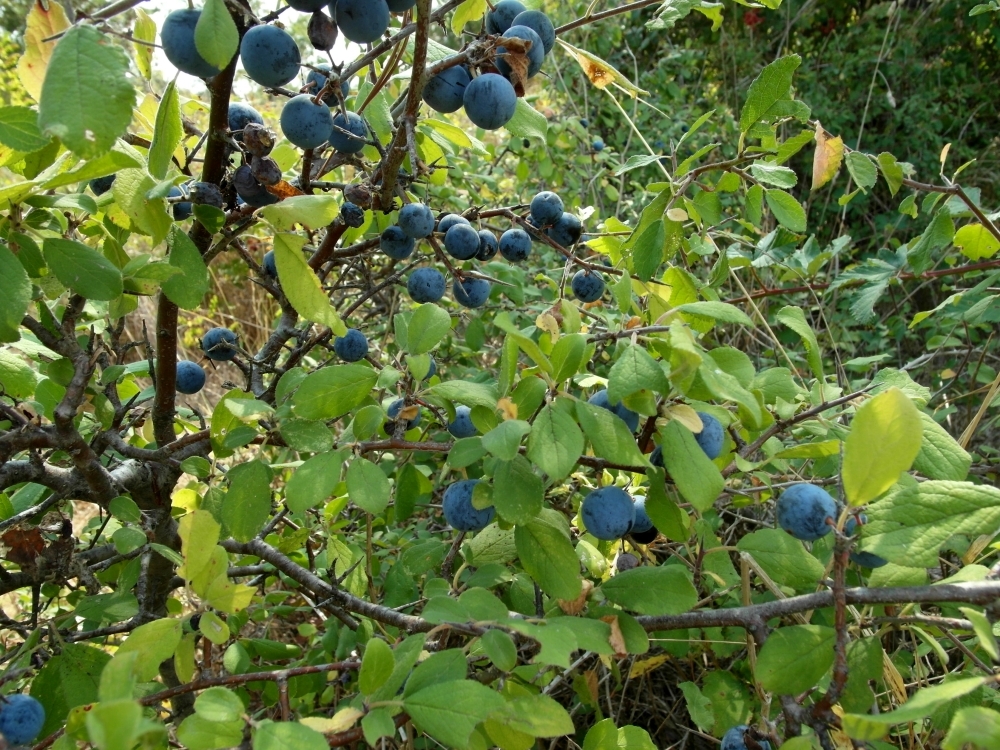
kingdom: Plantae
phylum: Tracheophyta
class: Magnoliopsida
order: Rosales
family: Rosaceae
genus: Prunus
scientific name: Prunus spinosa
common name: Blackthorn
